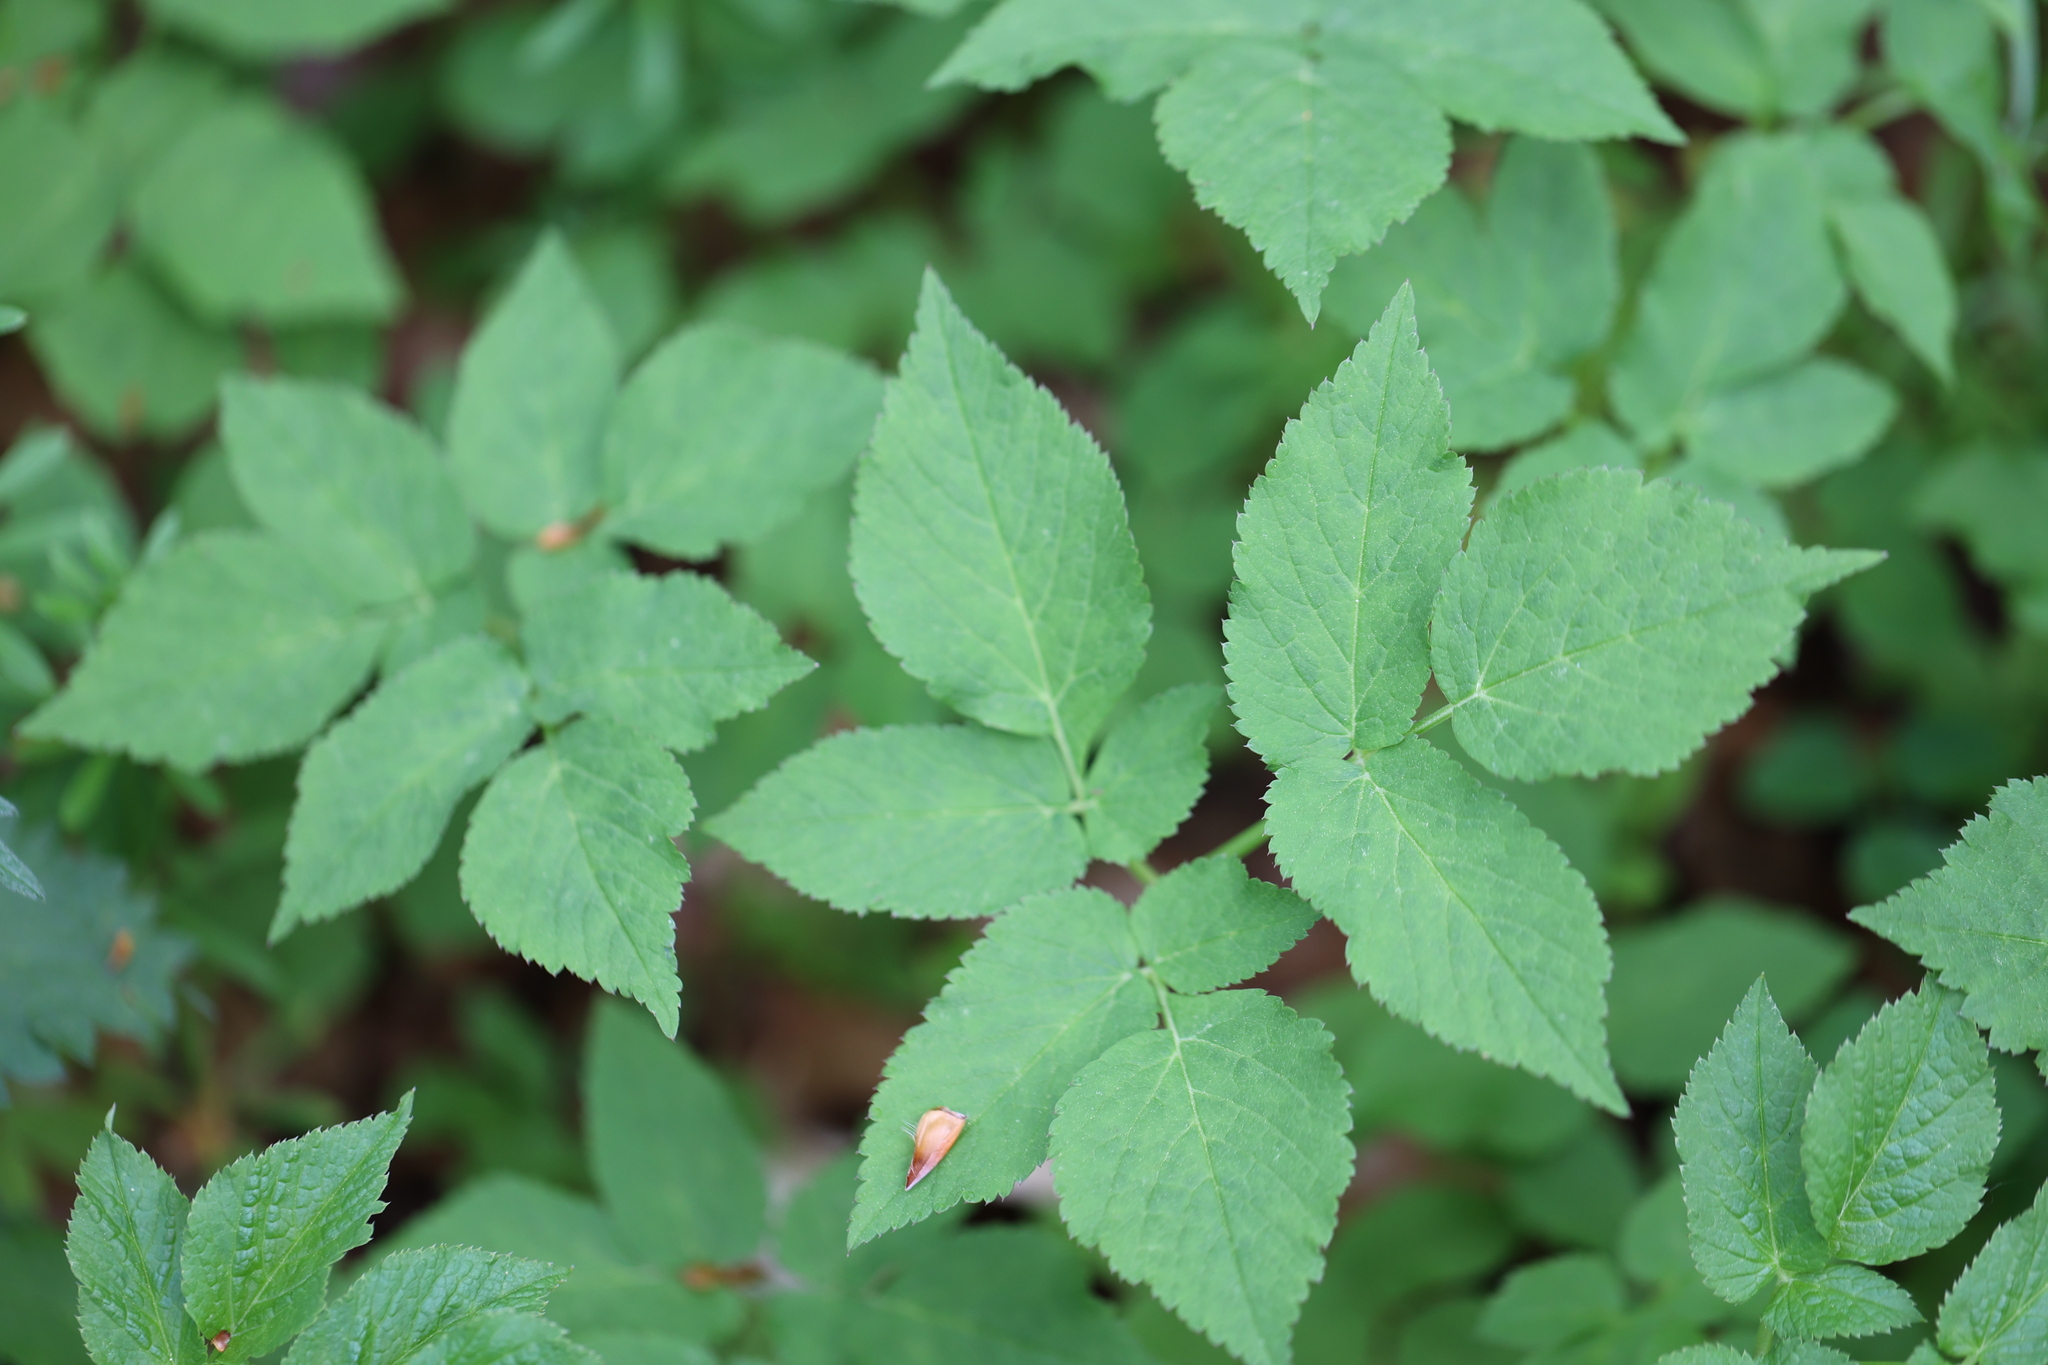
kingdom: Plantae
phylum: Tracheophyta
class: Magnoliopsida
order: Apiales
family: Apiaceae
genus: Aegopodium
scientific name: Aegopodium podagraria
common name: Ground-elder
